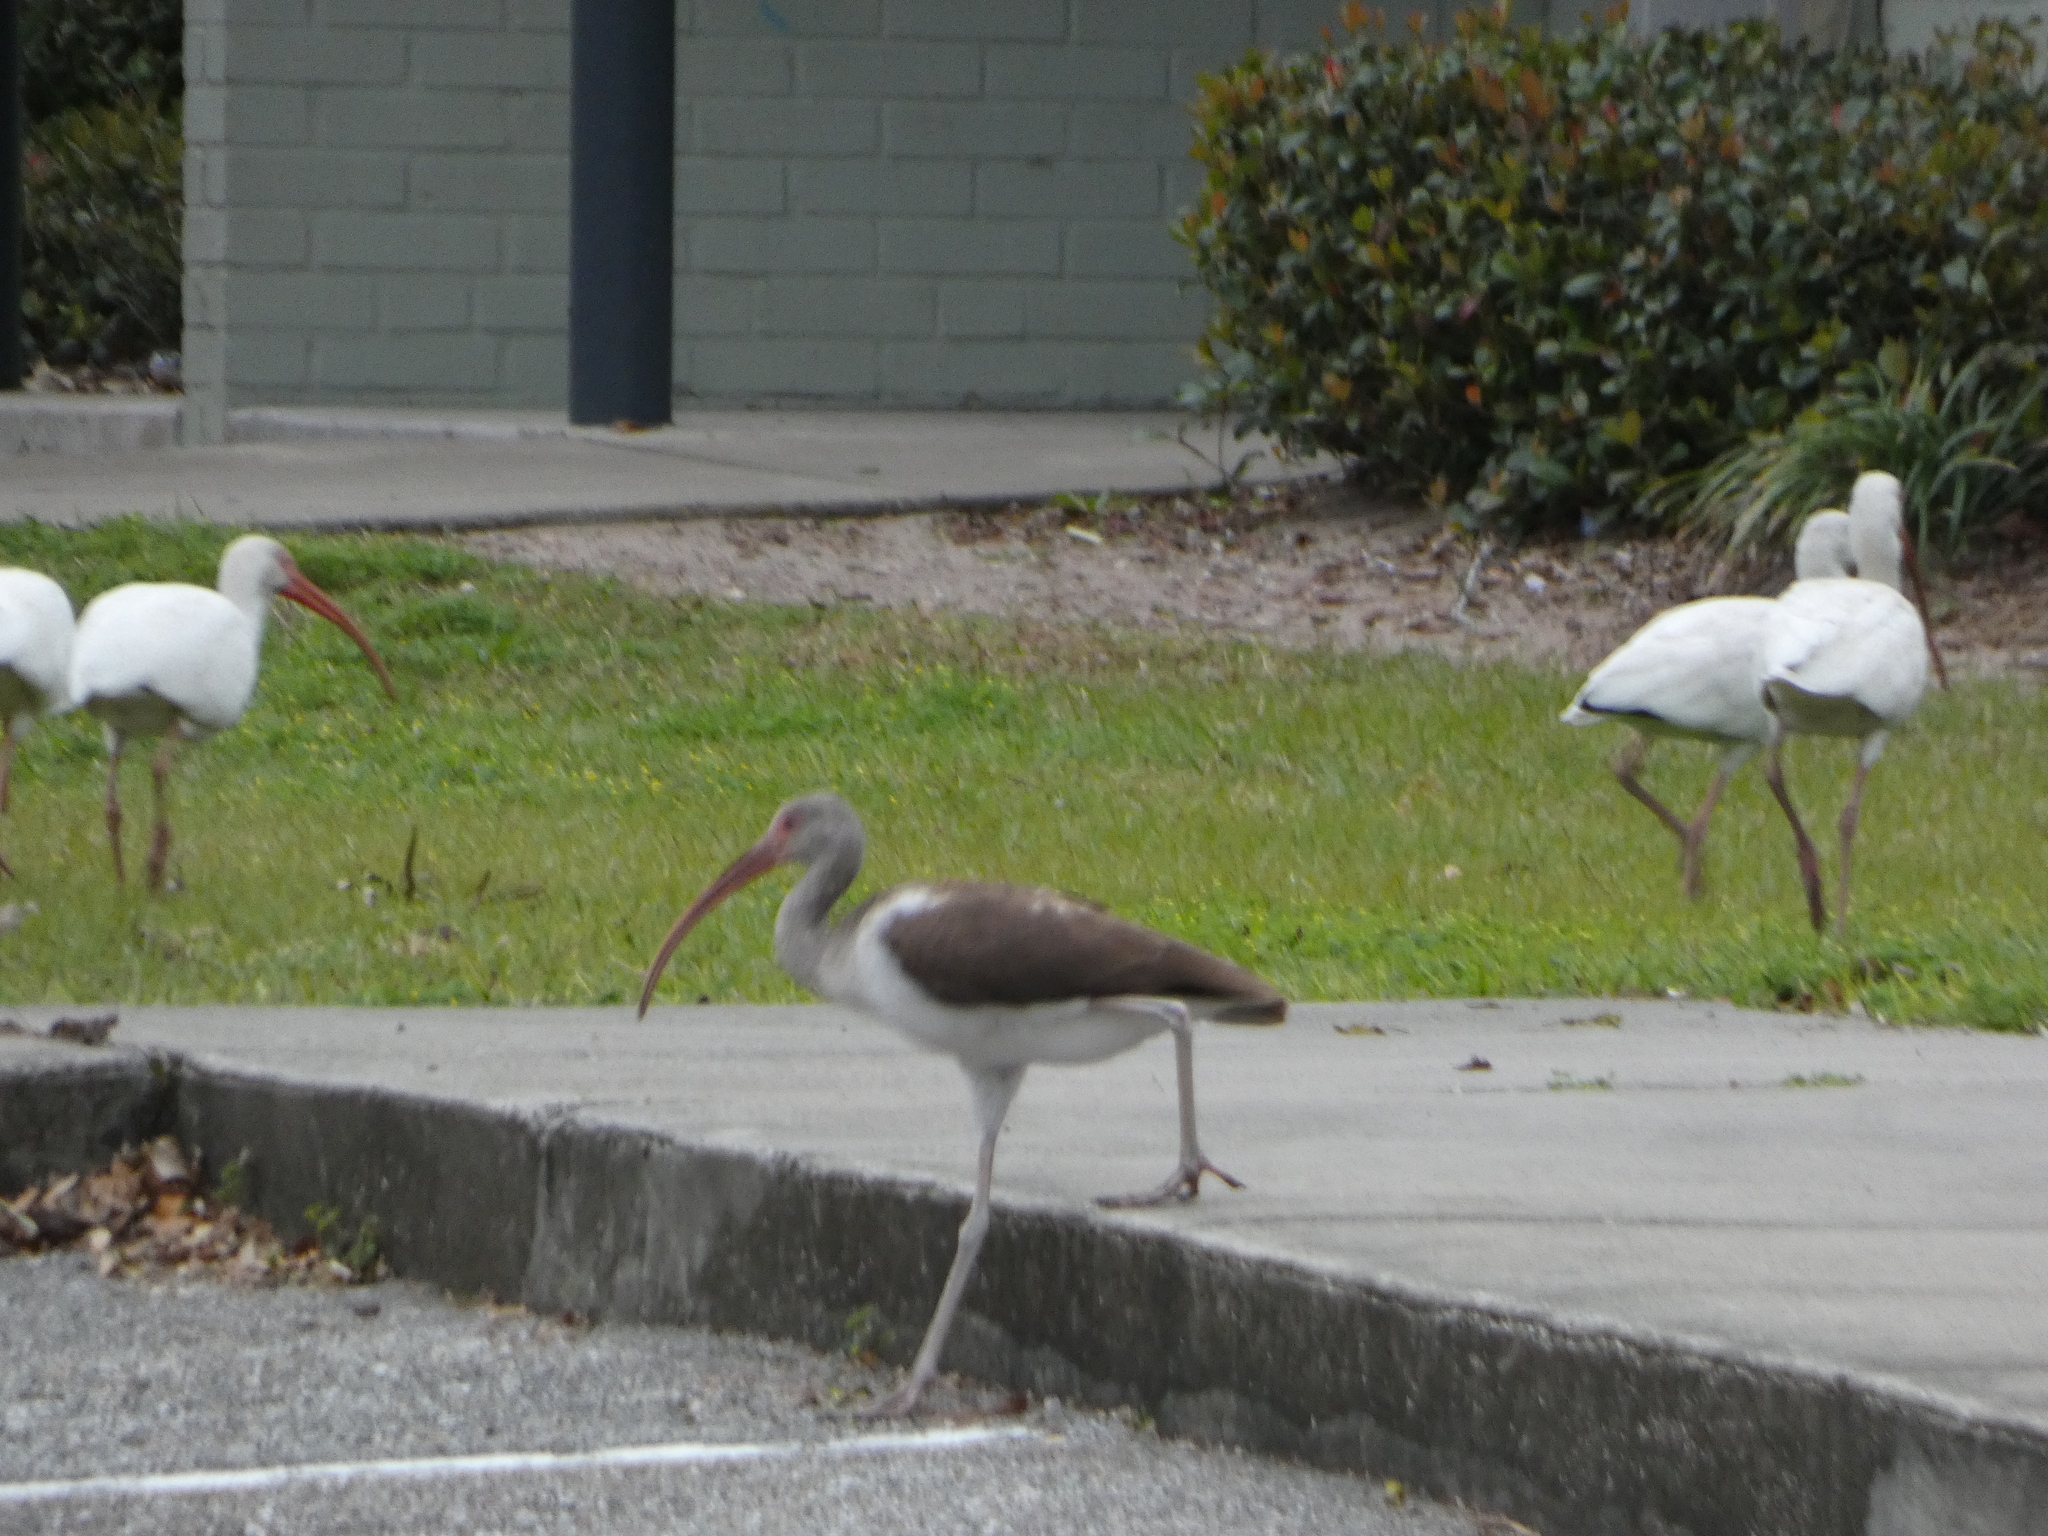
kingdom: Animalia
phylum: Chordata
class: Aves
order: Pelecaniformes
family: Threskiornithidae
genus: Eudocimus
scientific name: Eudocimus albus
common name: White ibis
